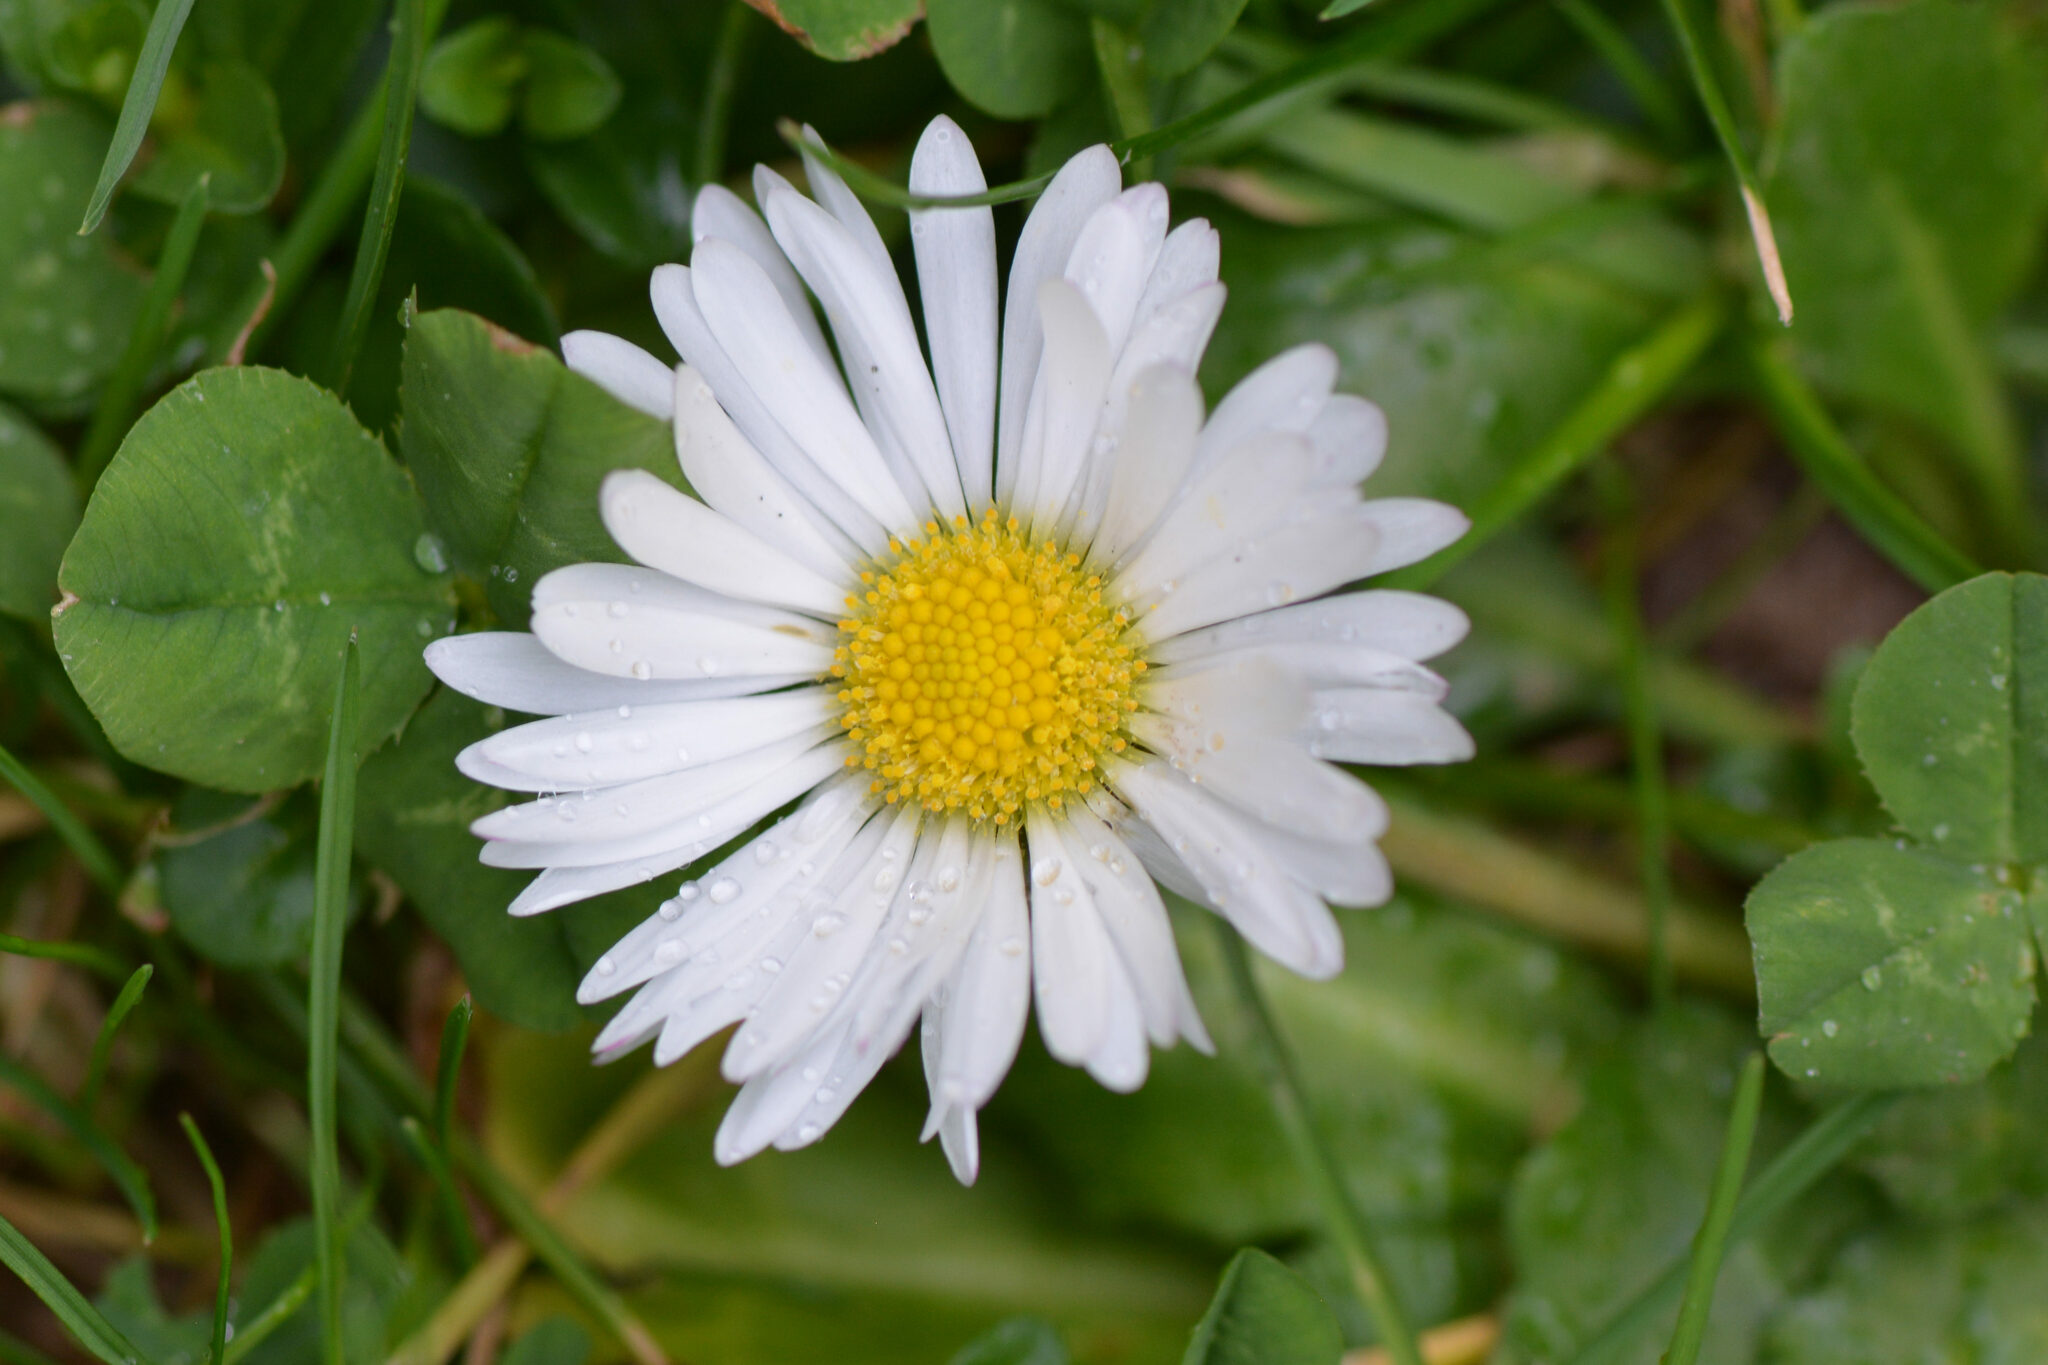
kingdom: Plantae
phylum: Tracheophyta
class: Magnoliopsida
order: Asterales
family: Asteraceae
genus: Bellis
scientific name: Bellis perennis
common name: Lawndaisy
